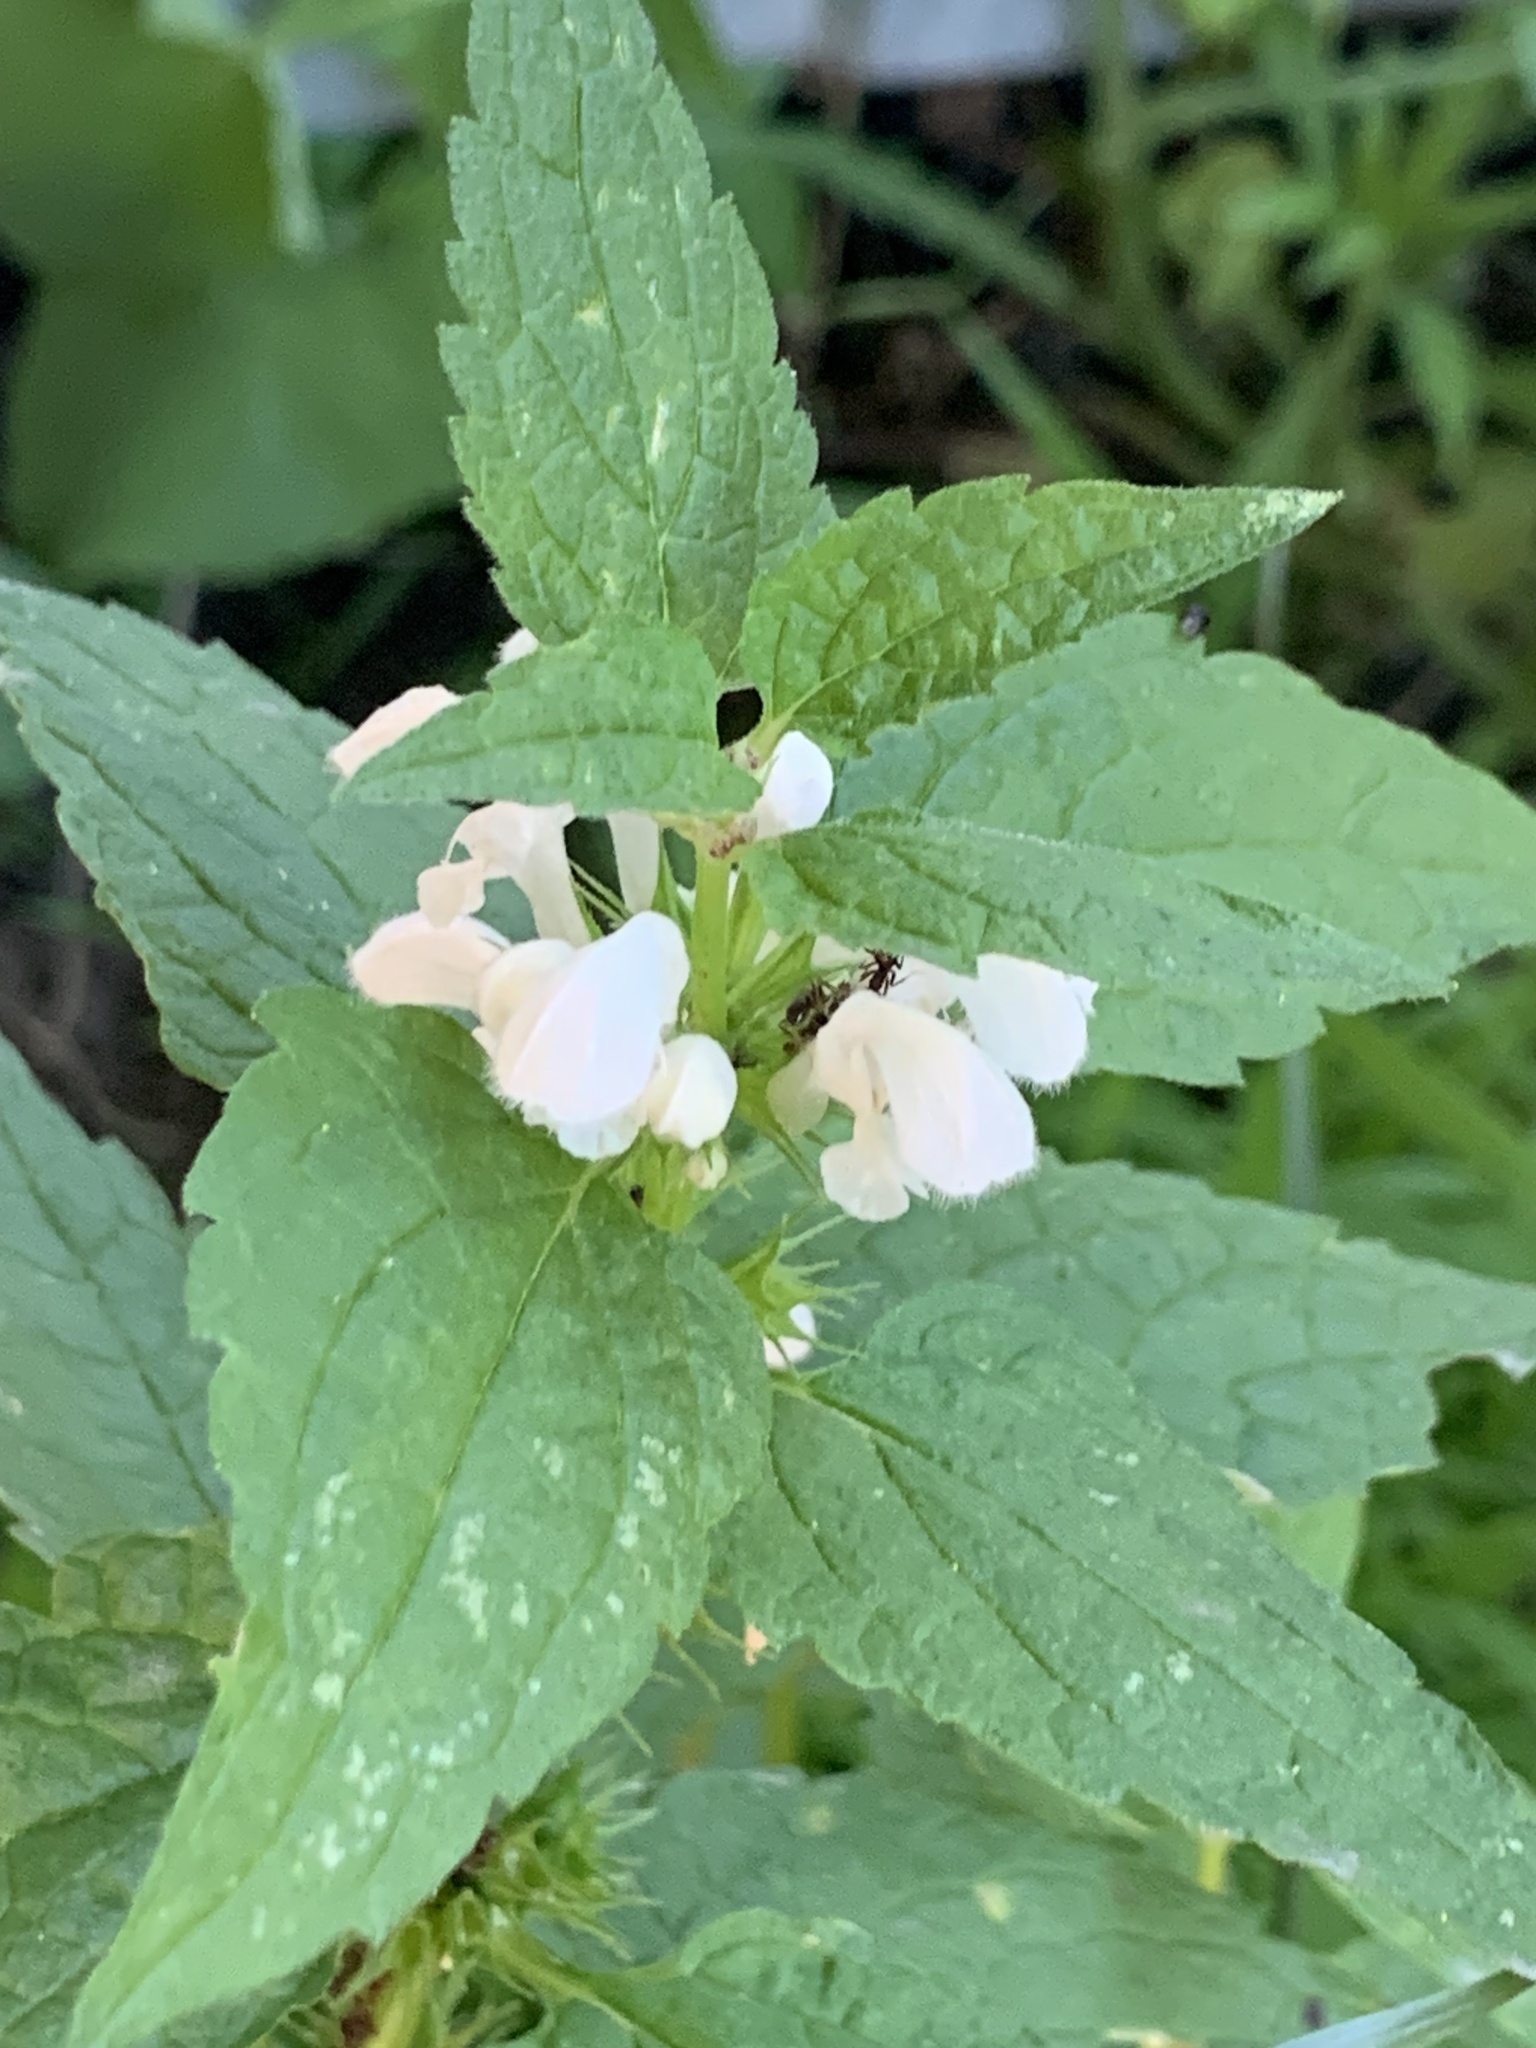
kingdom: Plantae
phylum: Tracheophyta
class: Magnoliopsida
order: Lamiales
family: Lamiaceae
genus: Lamium
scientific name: Lamium album
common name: White dead-nettle
